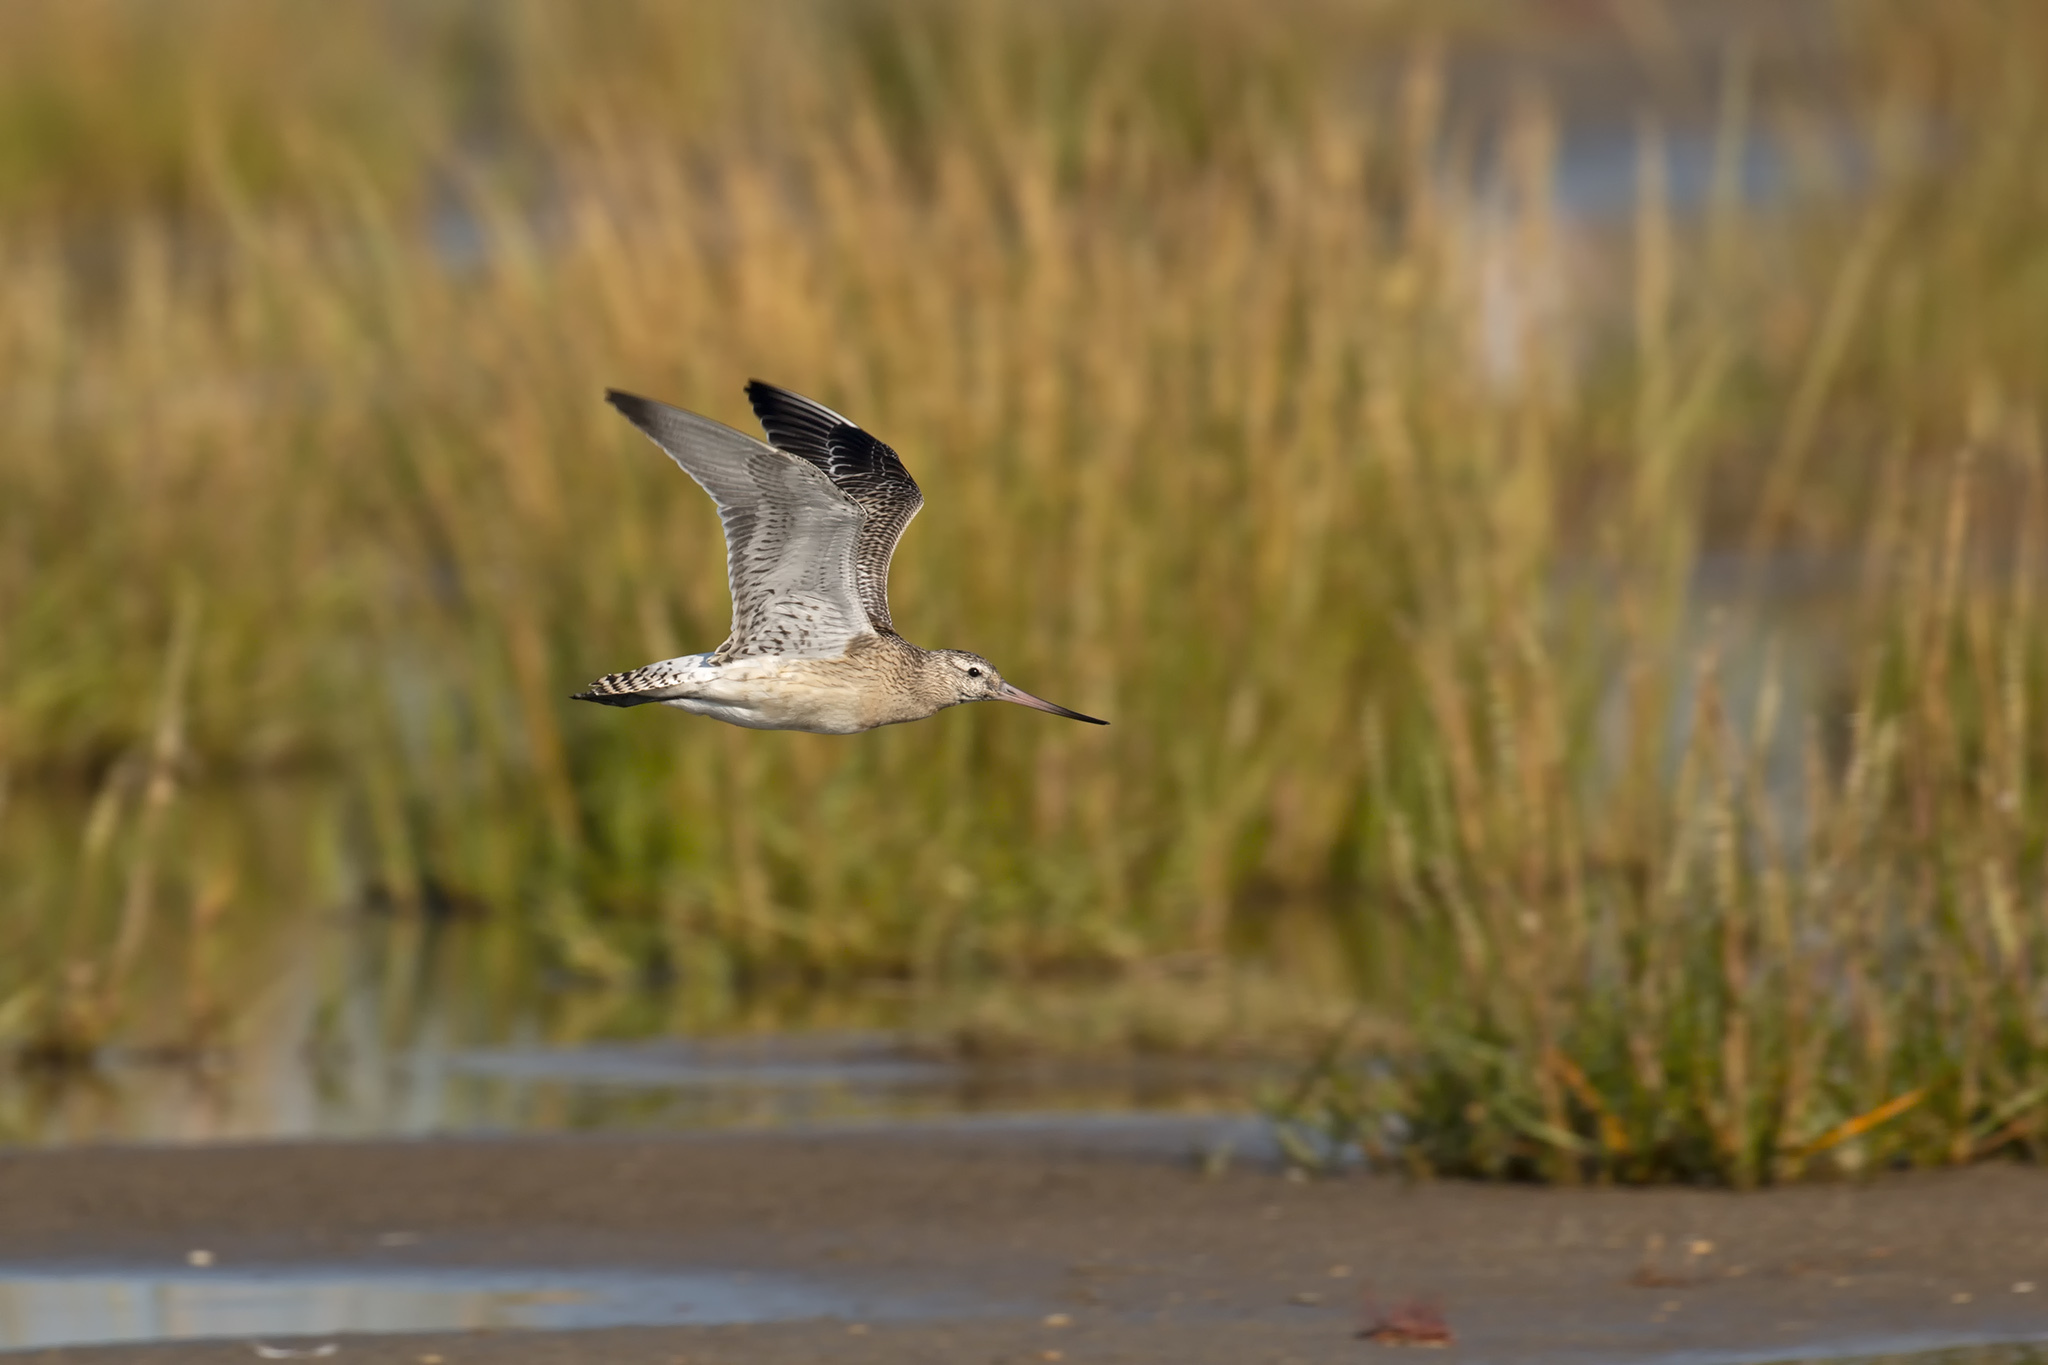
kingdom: Animalia
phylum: Chordata
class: Aves
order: Charadriiformes
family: Scolopacidae
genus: Limosa
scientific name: Limosa lapponica
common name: Bar-tailed godwit
